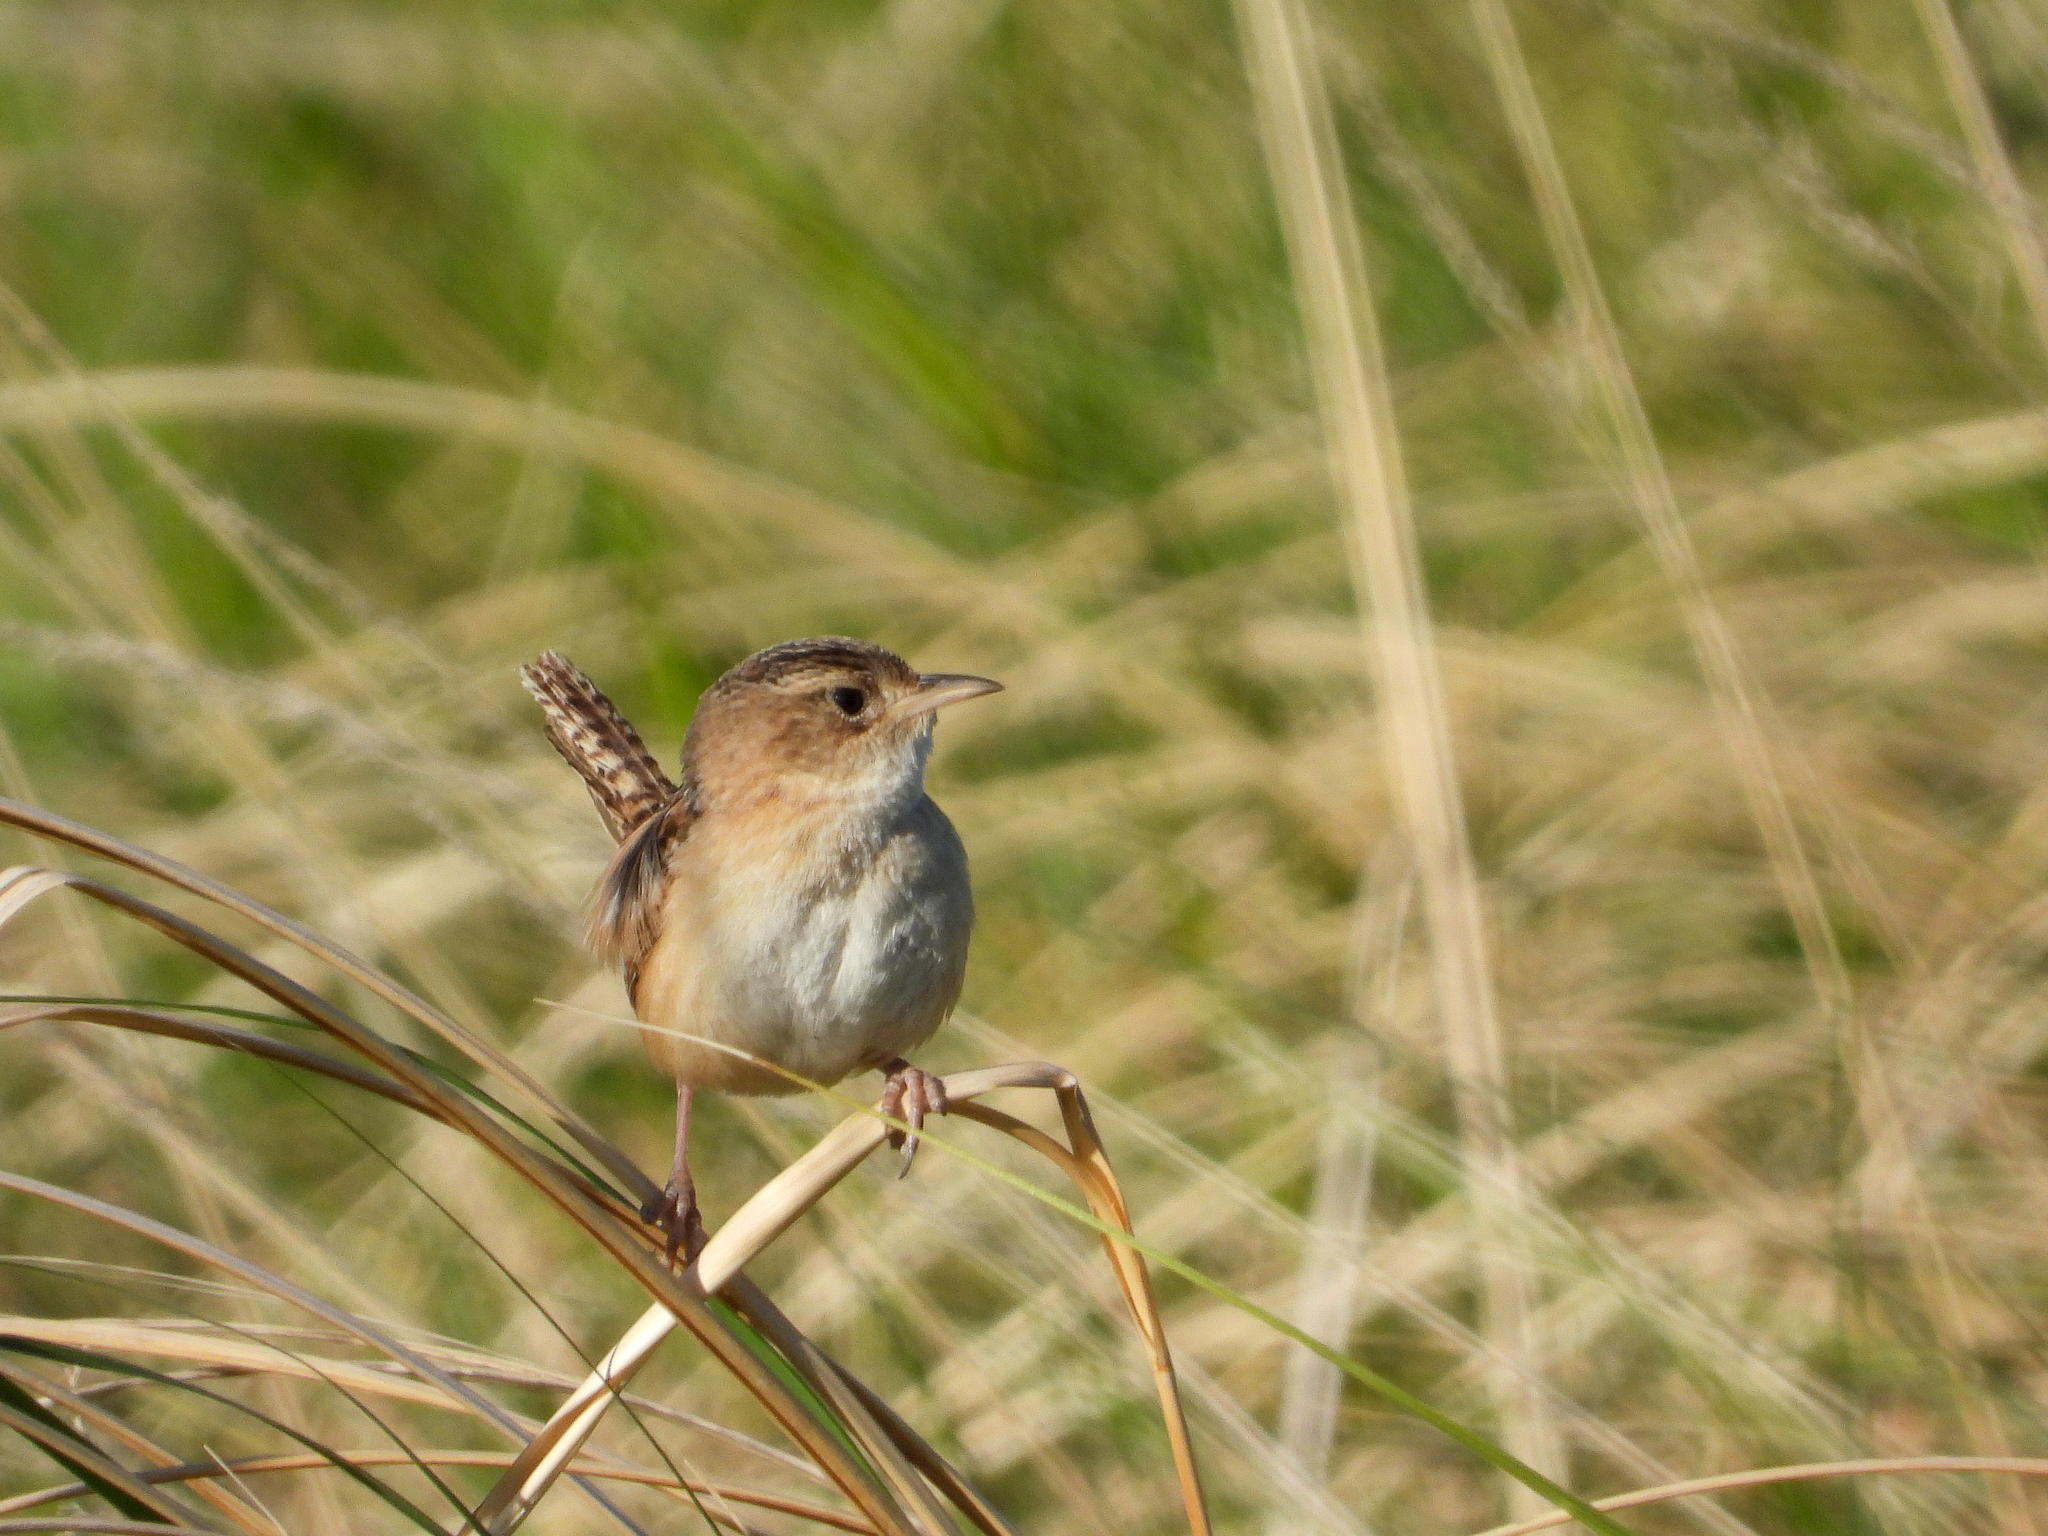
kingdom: Animalia
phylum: Chordata
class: Aves
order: Passeriformes
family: Troglodytidae
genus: Cistothorus
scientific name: Cistothorus platensis
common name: Sedge wren
